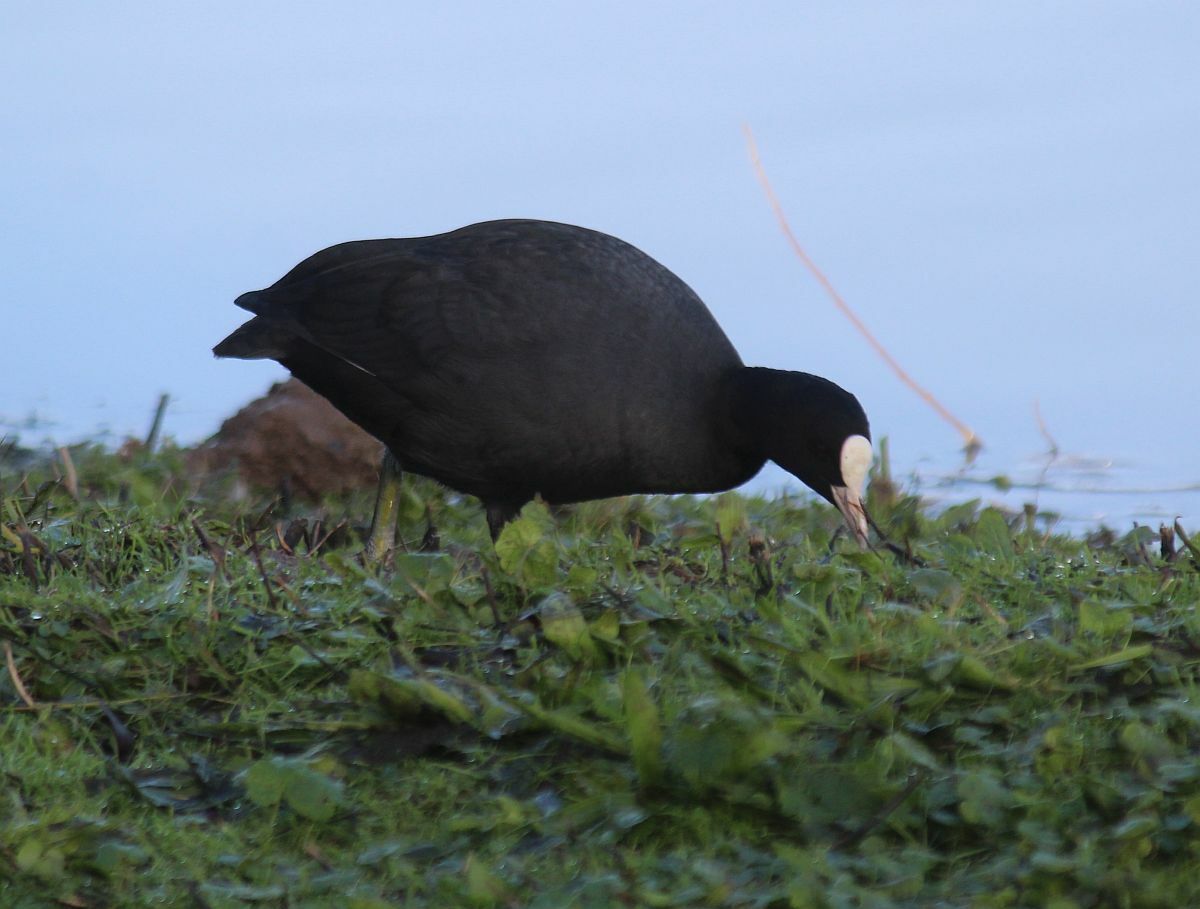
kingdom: Animalia
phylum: Chordata
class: Aves
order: Gruiformes
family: Rallidae
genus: Fulica
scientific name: Fulica atra
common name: Eurasian coot
